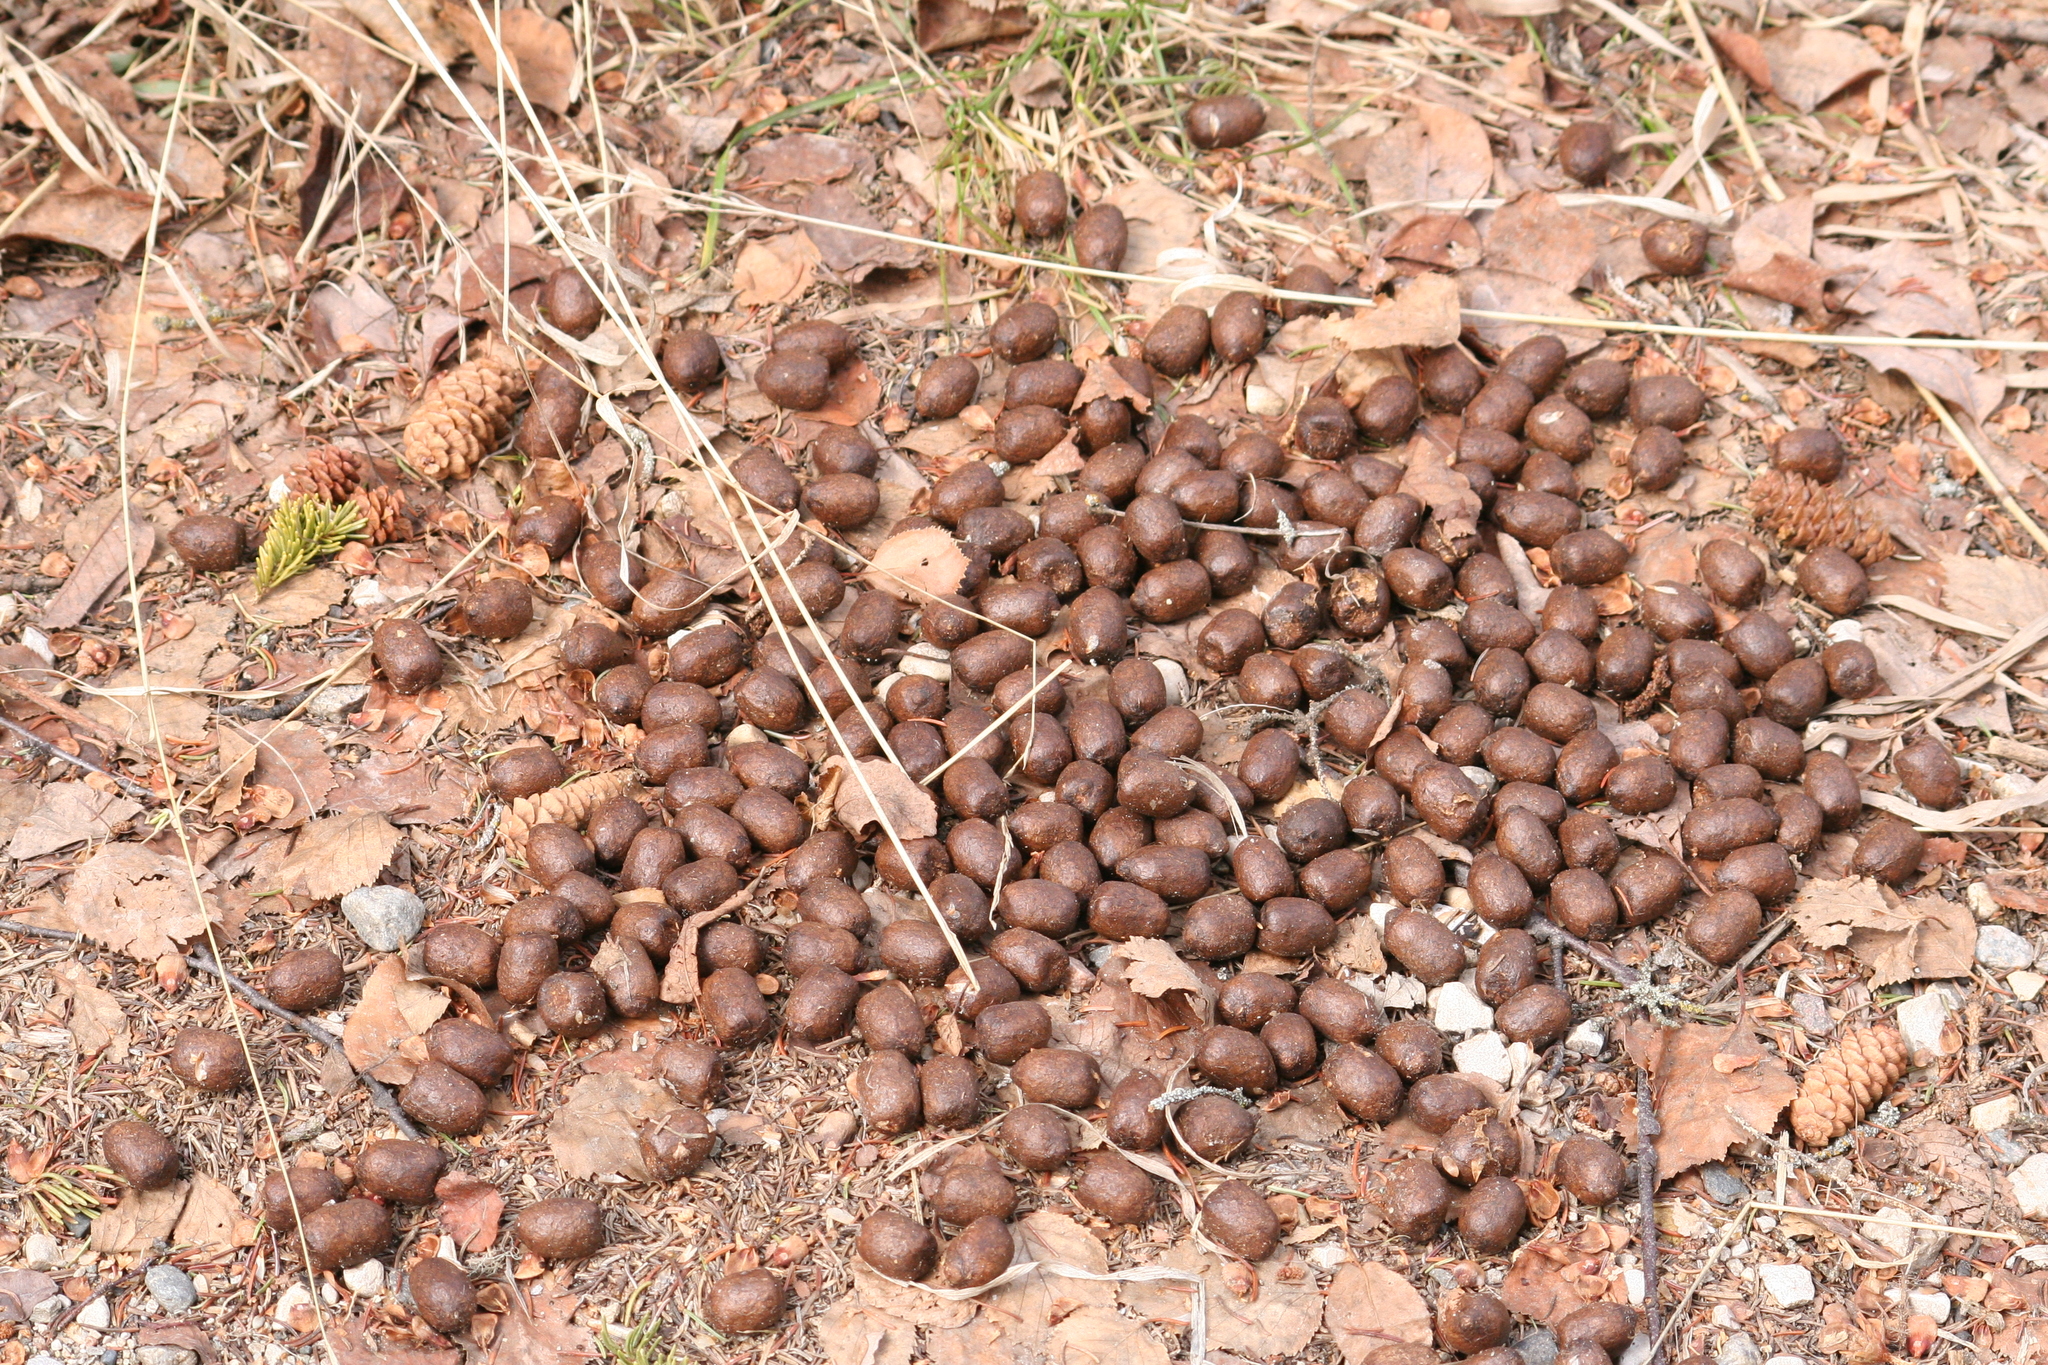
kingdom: Animalia
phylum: Chordata
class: Mammalia
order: Artiodactyla
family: Cervidae
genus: Alces
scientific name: Alces alces
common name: Moose
